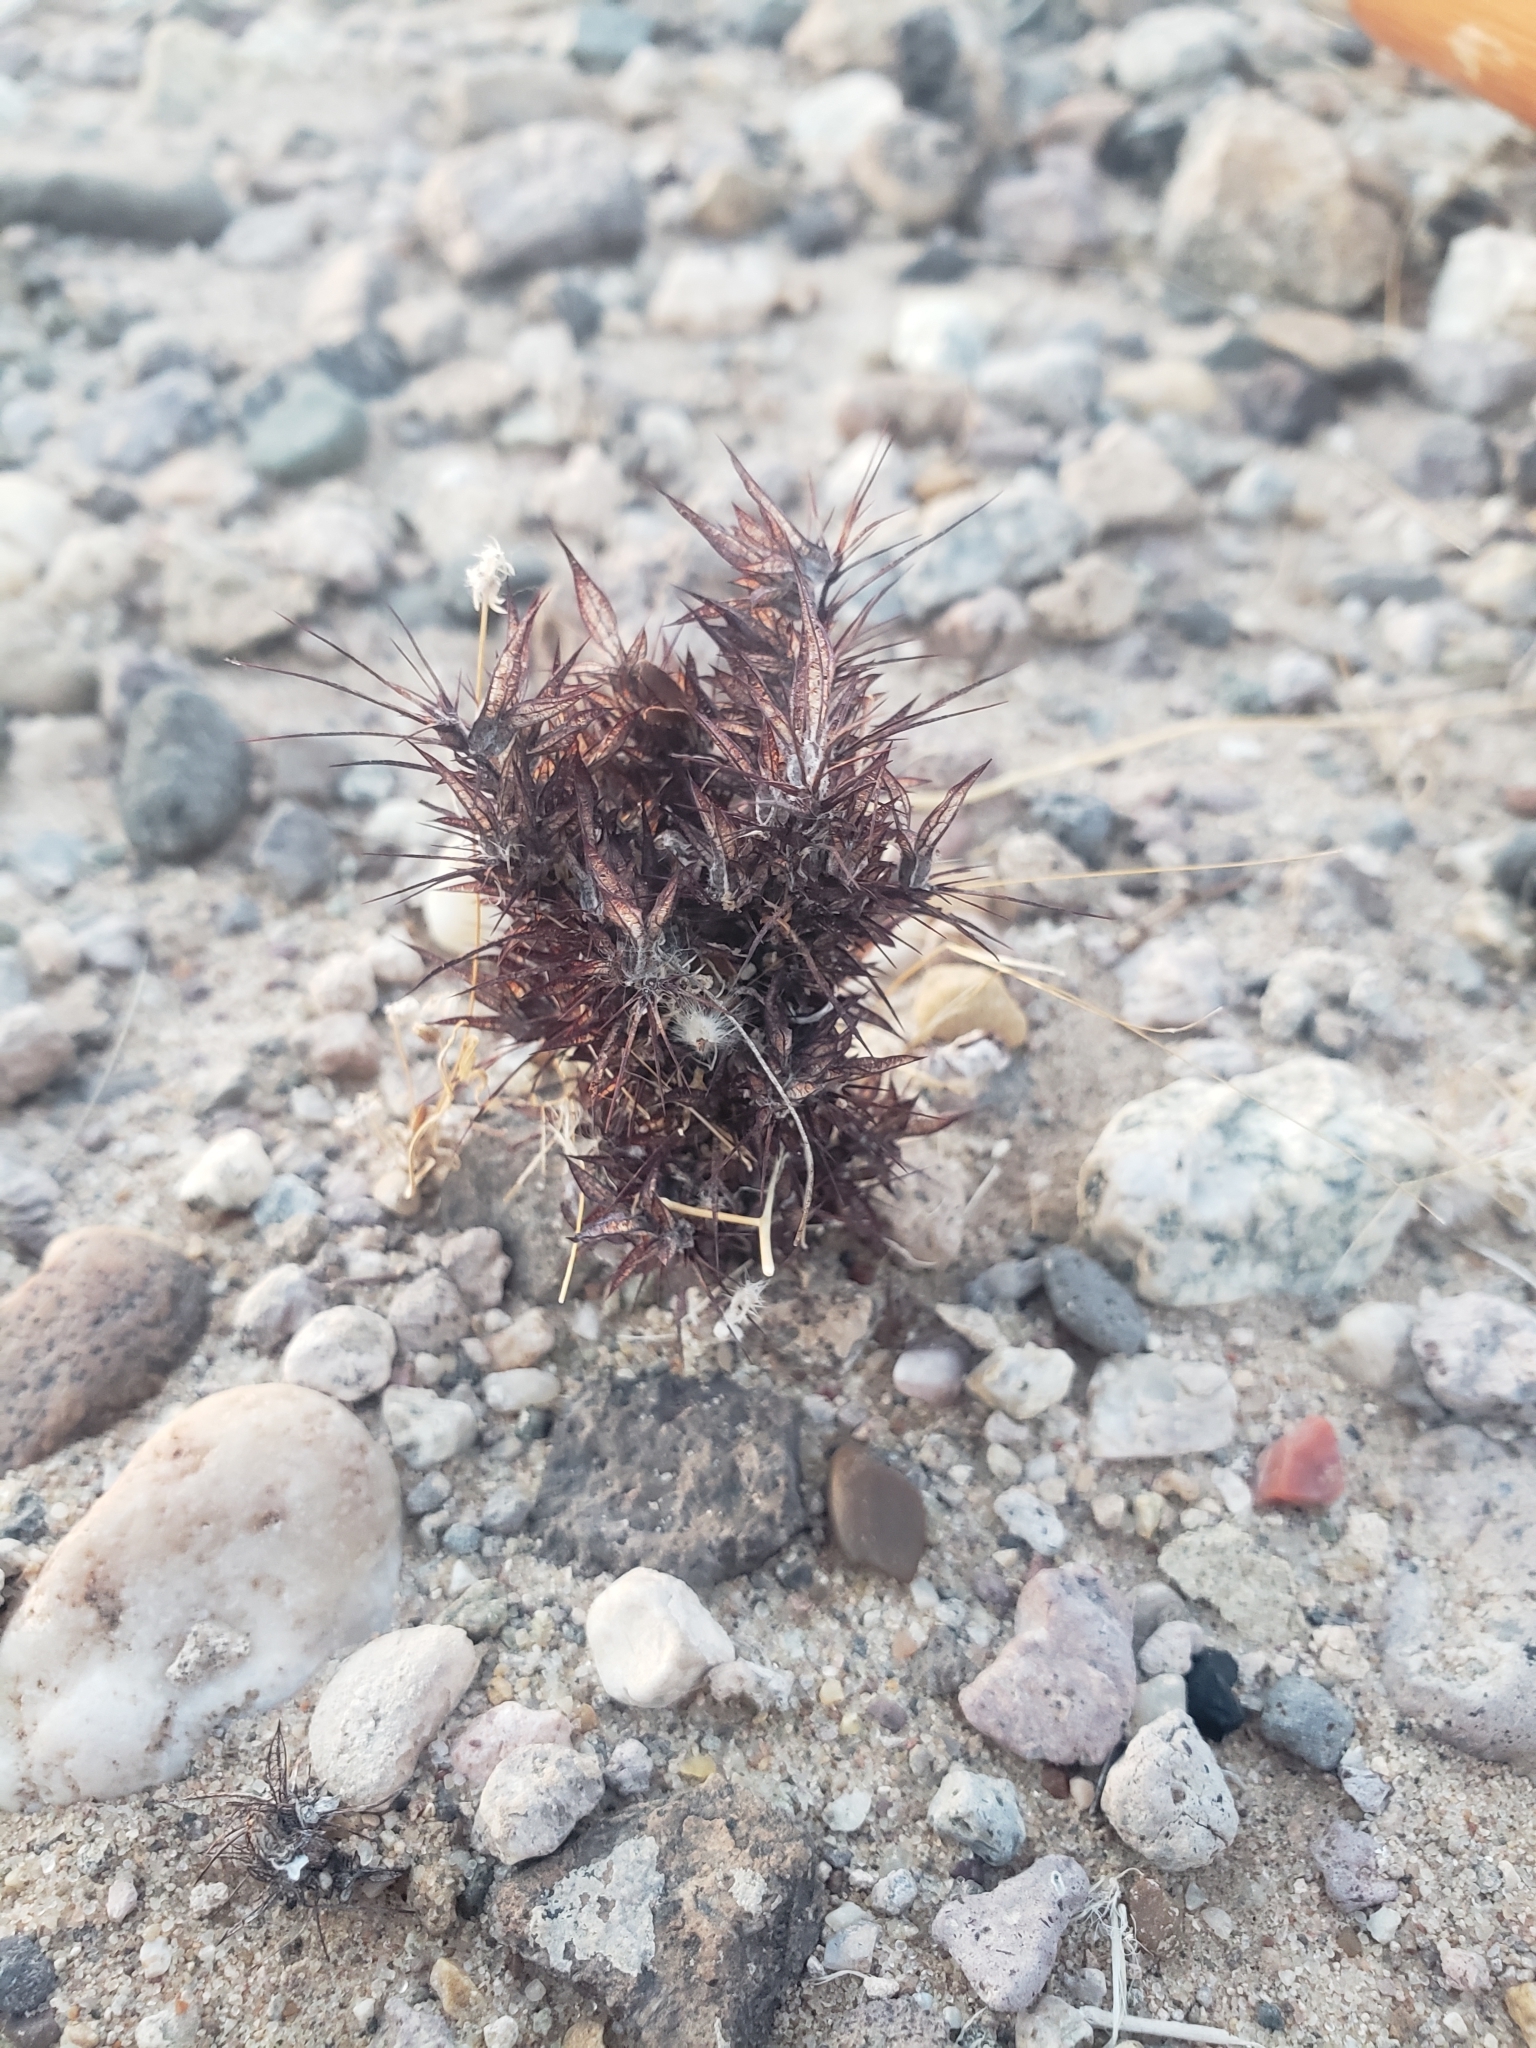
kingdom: Plantae
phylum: Tracheophyta
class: Magnoliopsida
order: Caryophyllales
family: Polygonaceae
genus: Chorizanthe
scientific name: Chorizanthe rigida
